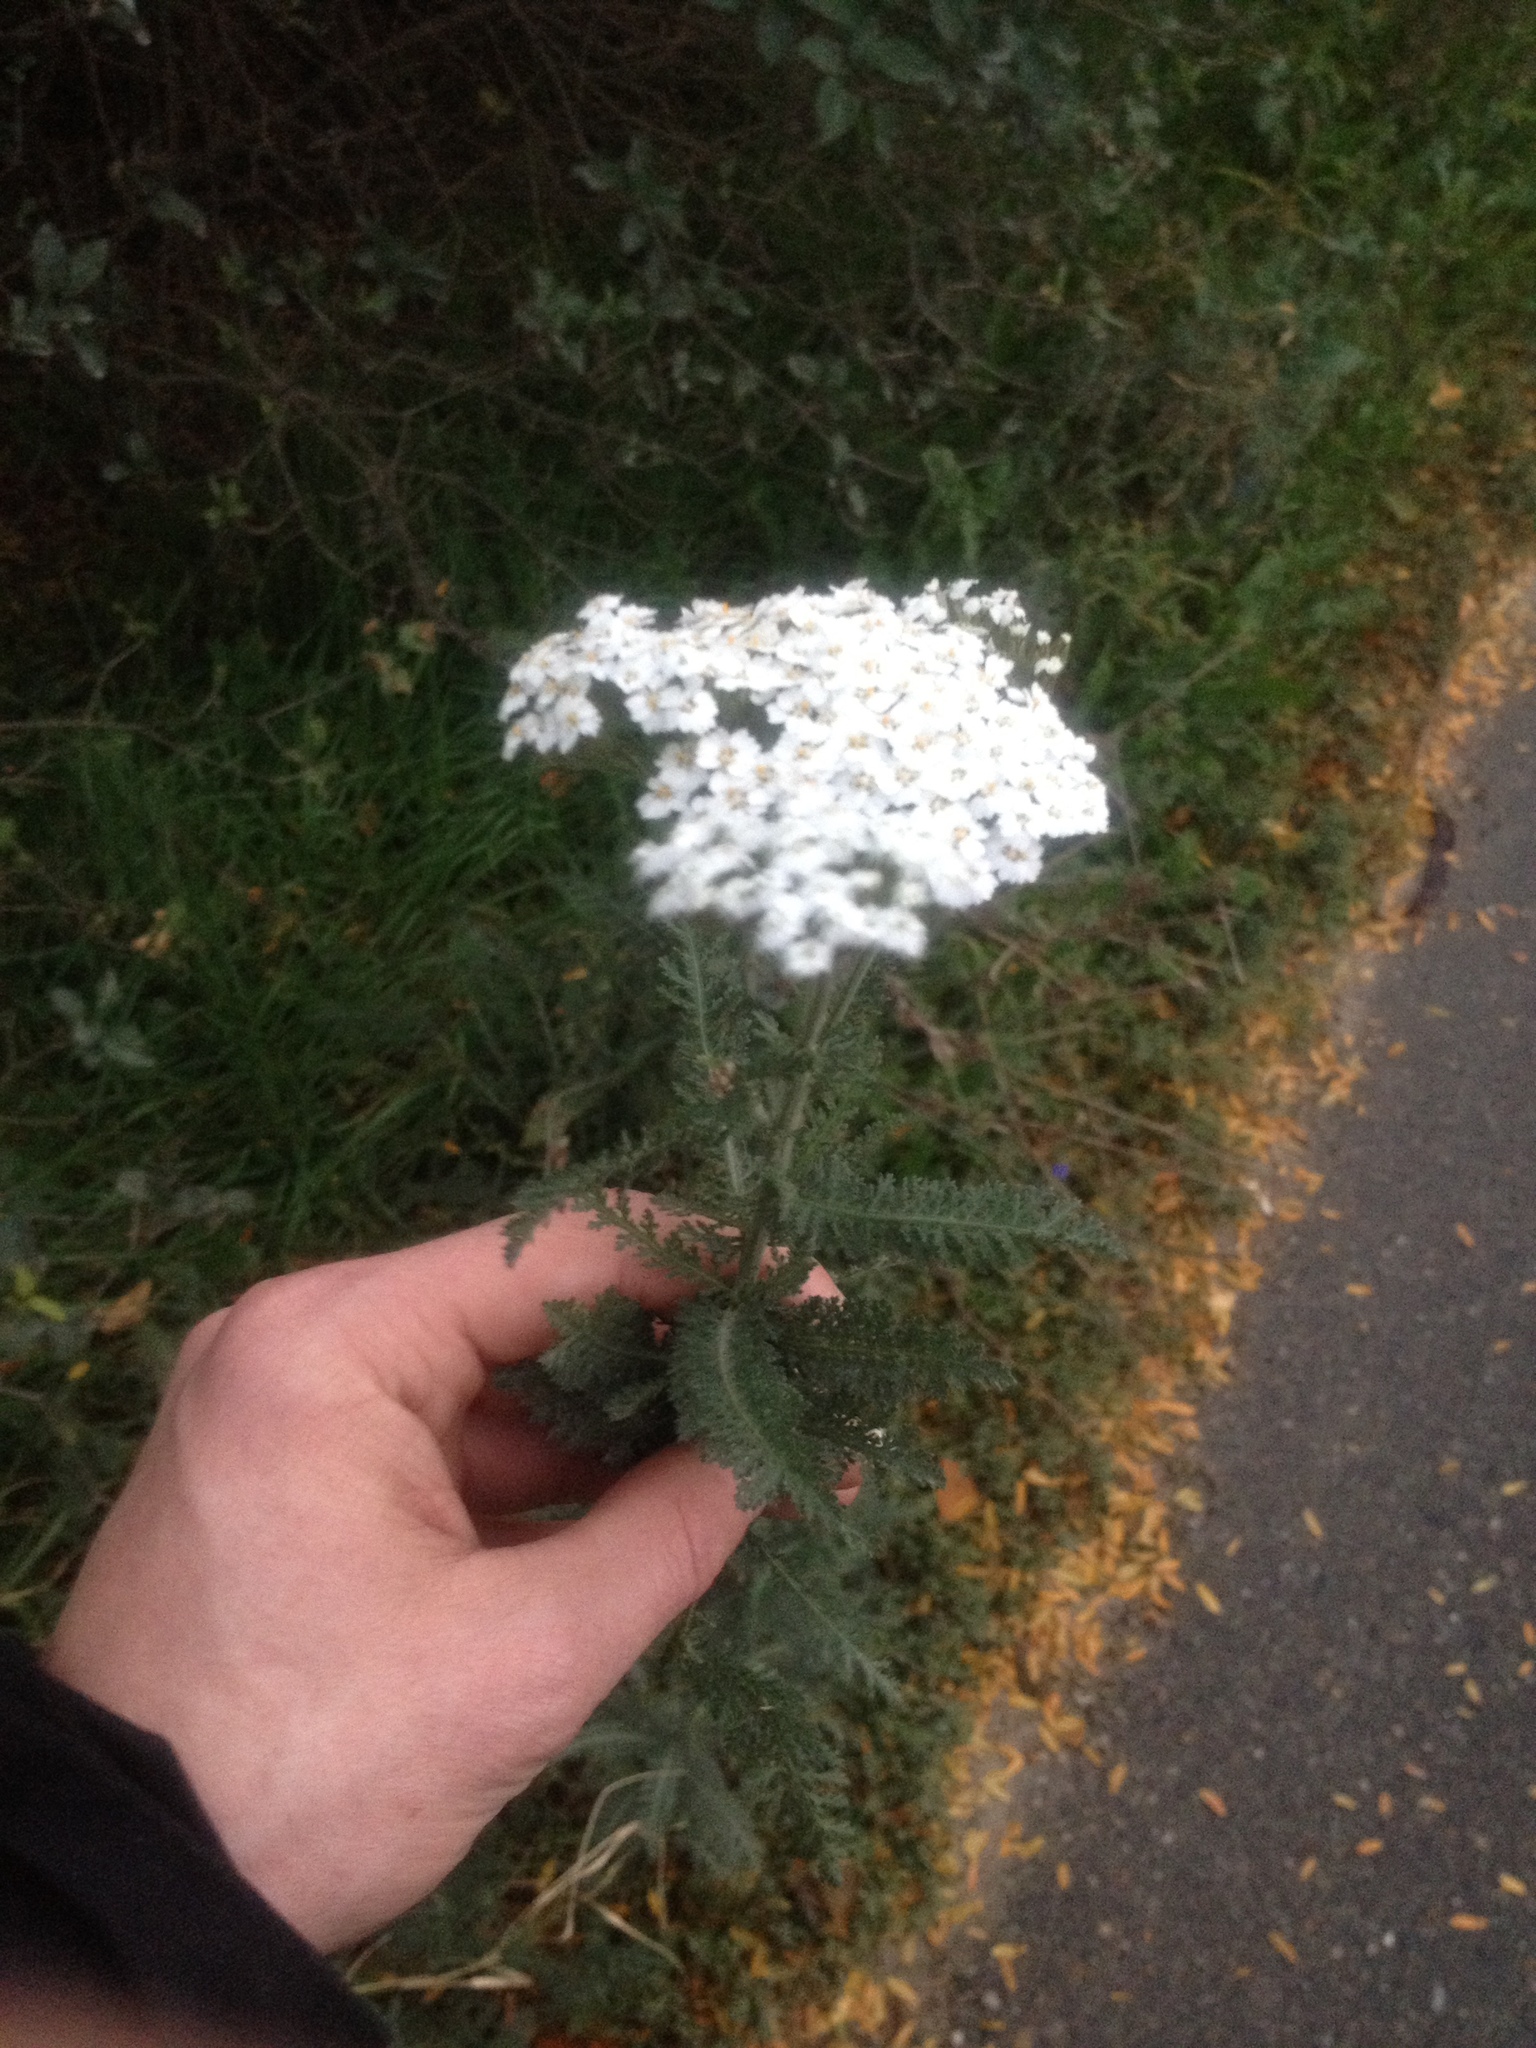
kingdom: Plantae
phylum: Tracheophyta
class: Magnoliopsida
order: Asterales
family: Asteraceae
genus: Achillea
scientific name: Achillea millefolium
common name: Yarrow
